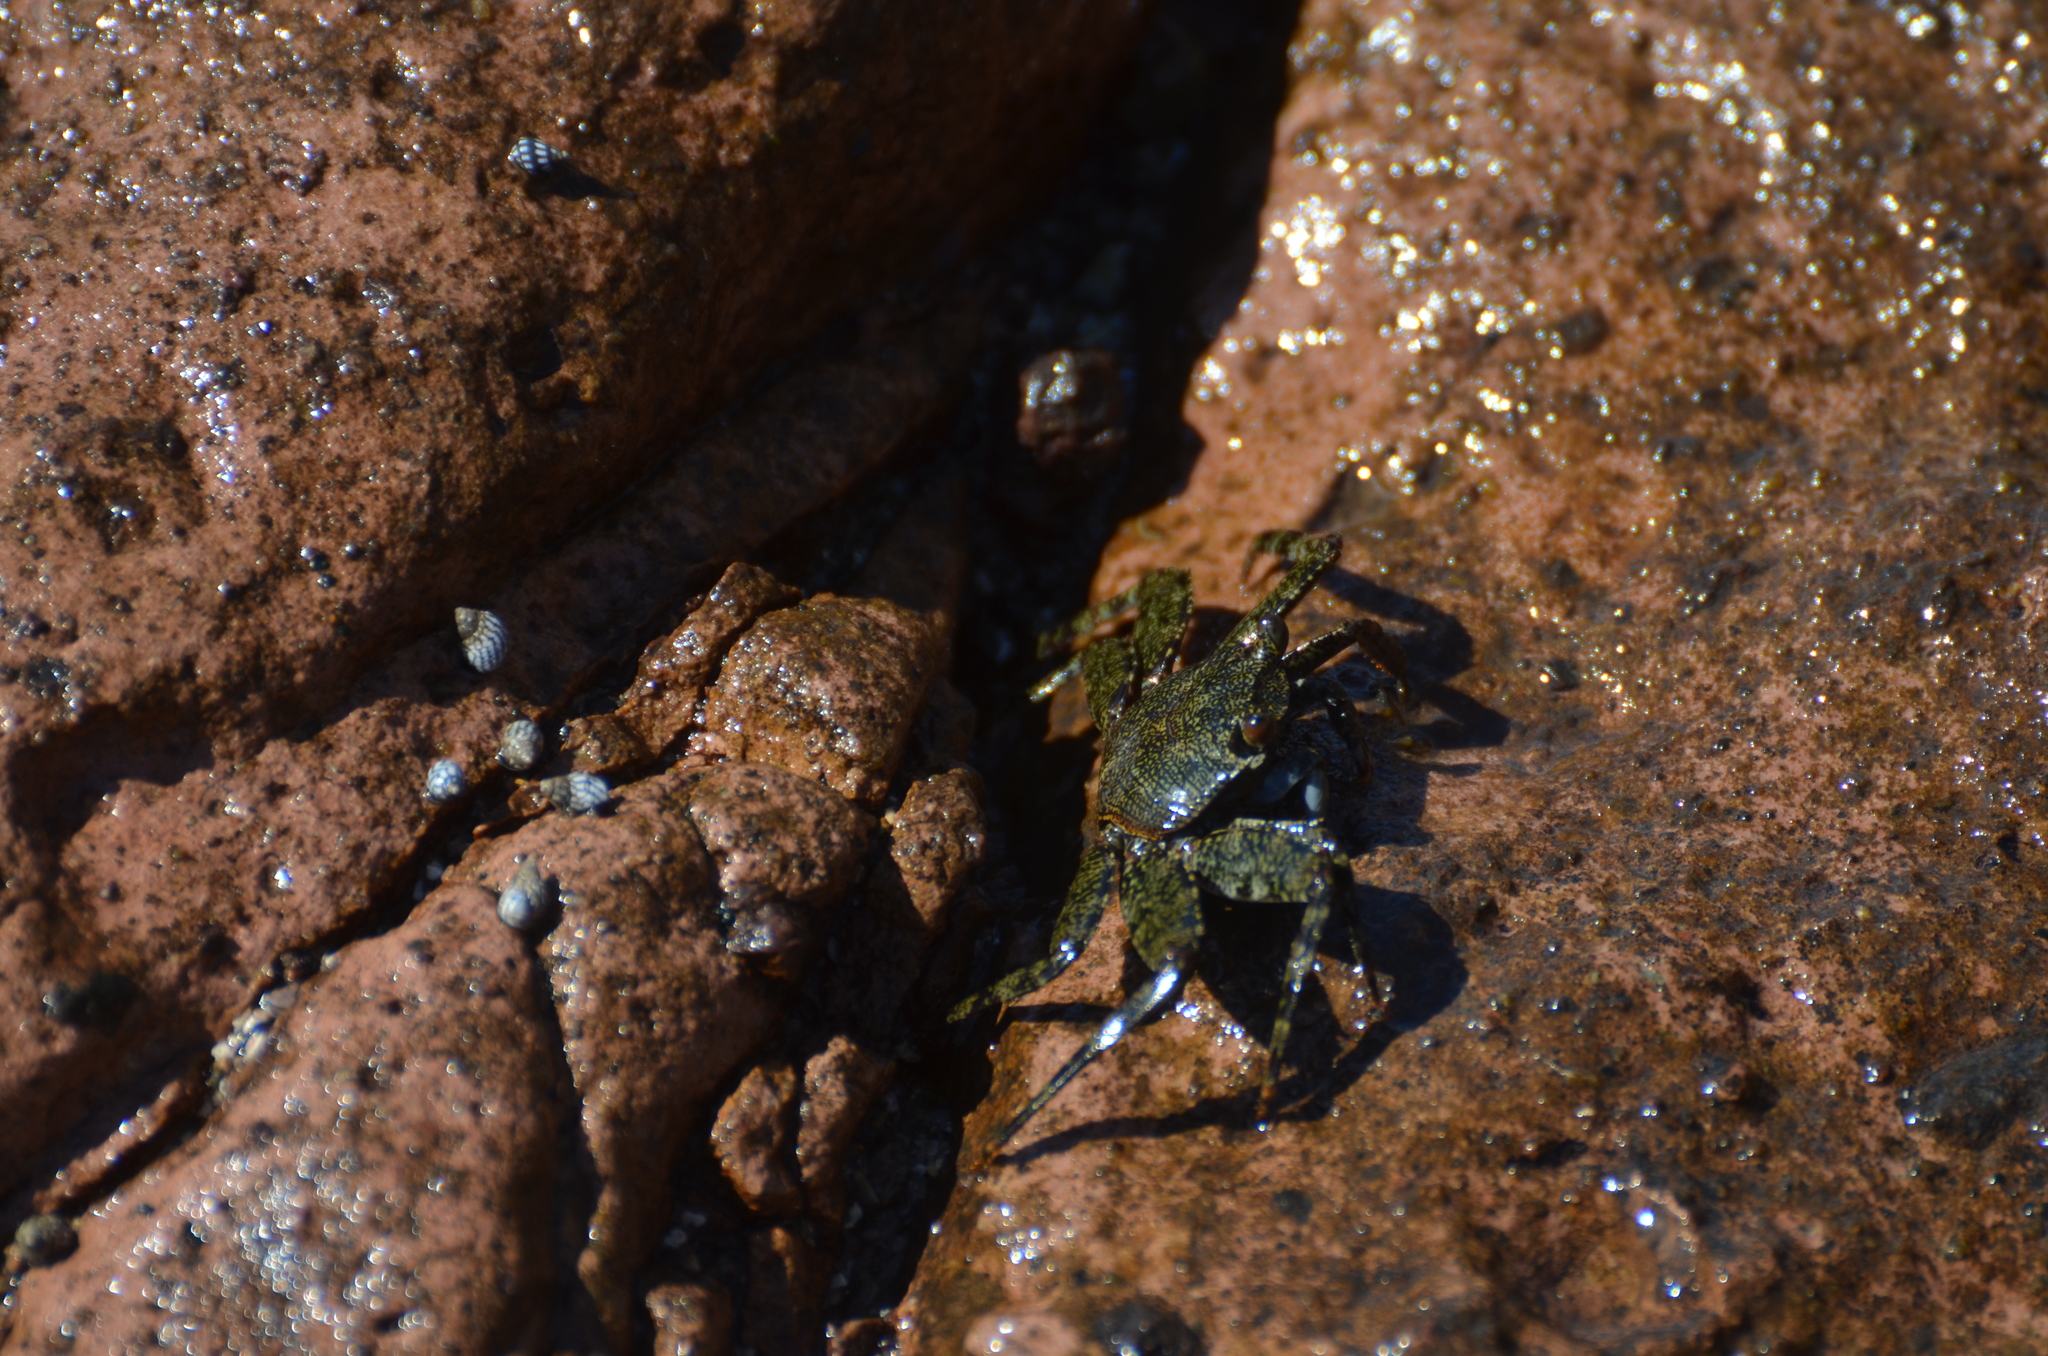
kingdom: Animalia
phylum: Arthropoda
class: Malacostraca
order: Decapoda
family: Grapsidae
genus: Grapsus
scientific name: Grapsus grapsus
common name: Sally lightfoot
